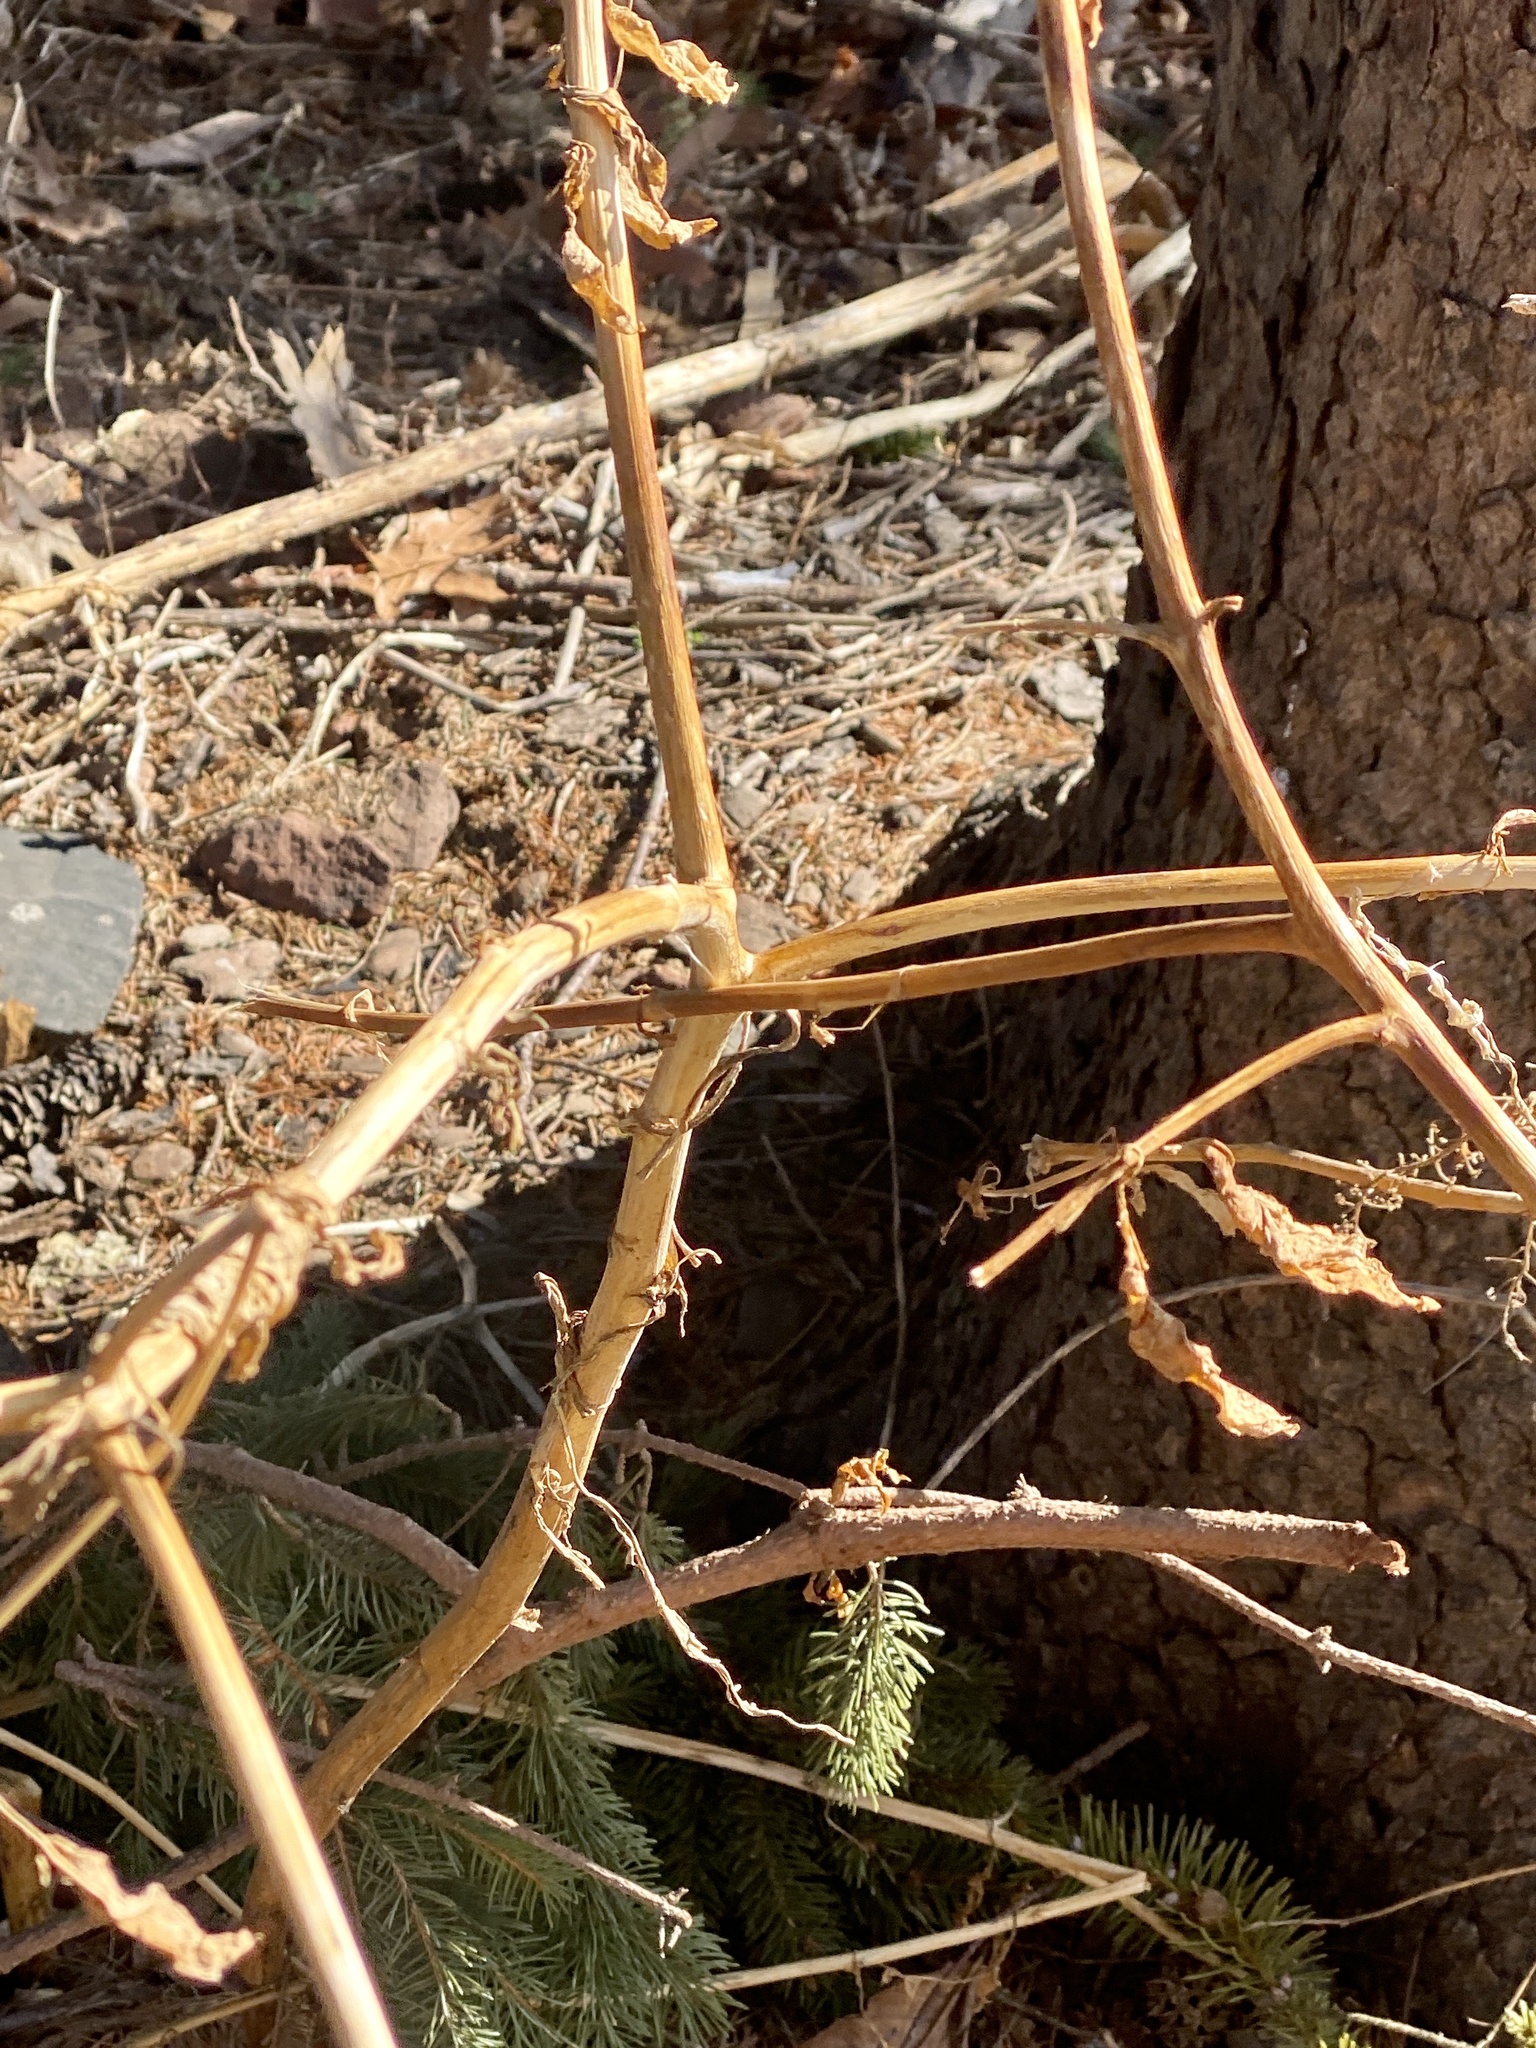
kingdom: Plantae
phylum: Tracheophyta
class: Magnoliopsida
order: Caryophyllales
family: Phytolaccaceae
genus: Phytolacca
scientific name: Phytolacca americana
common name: American pokeweed
